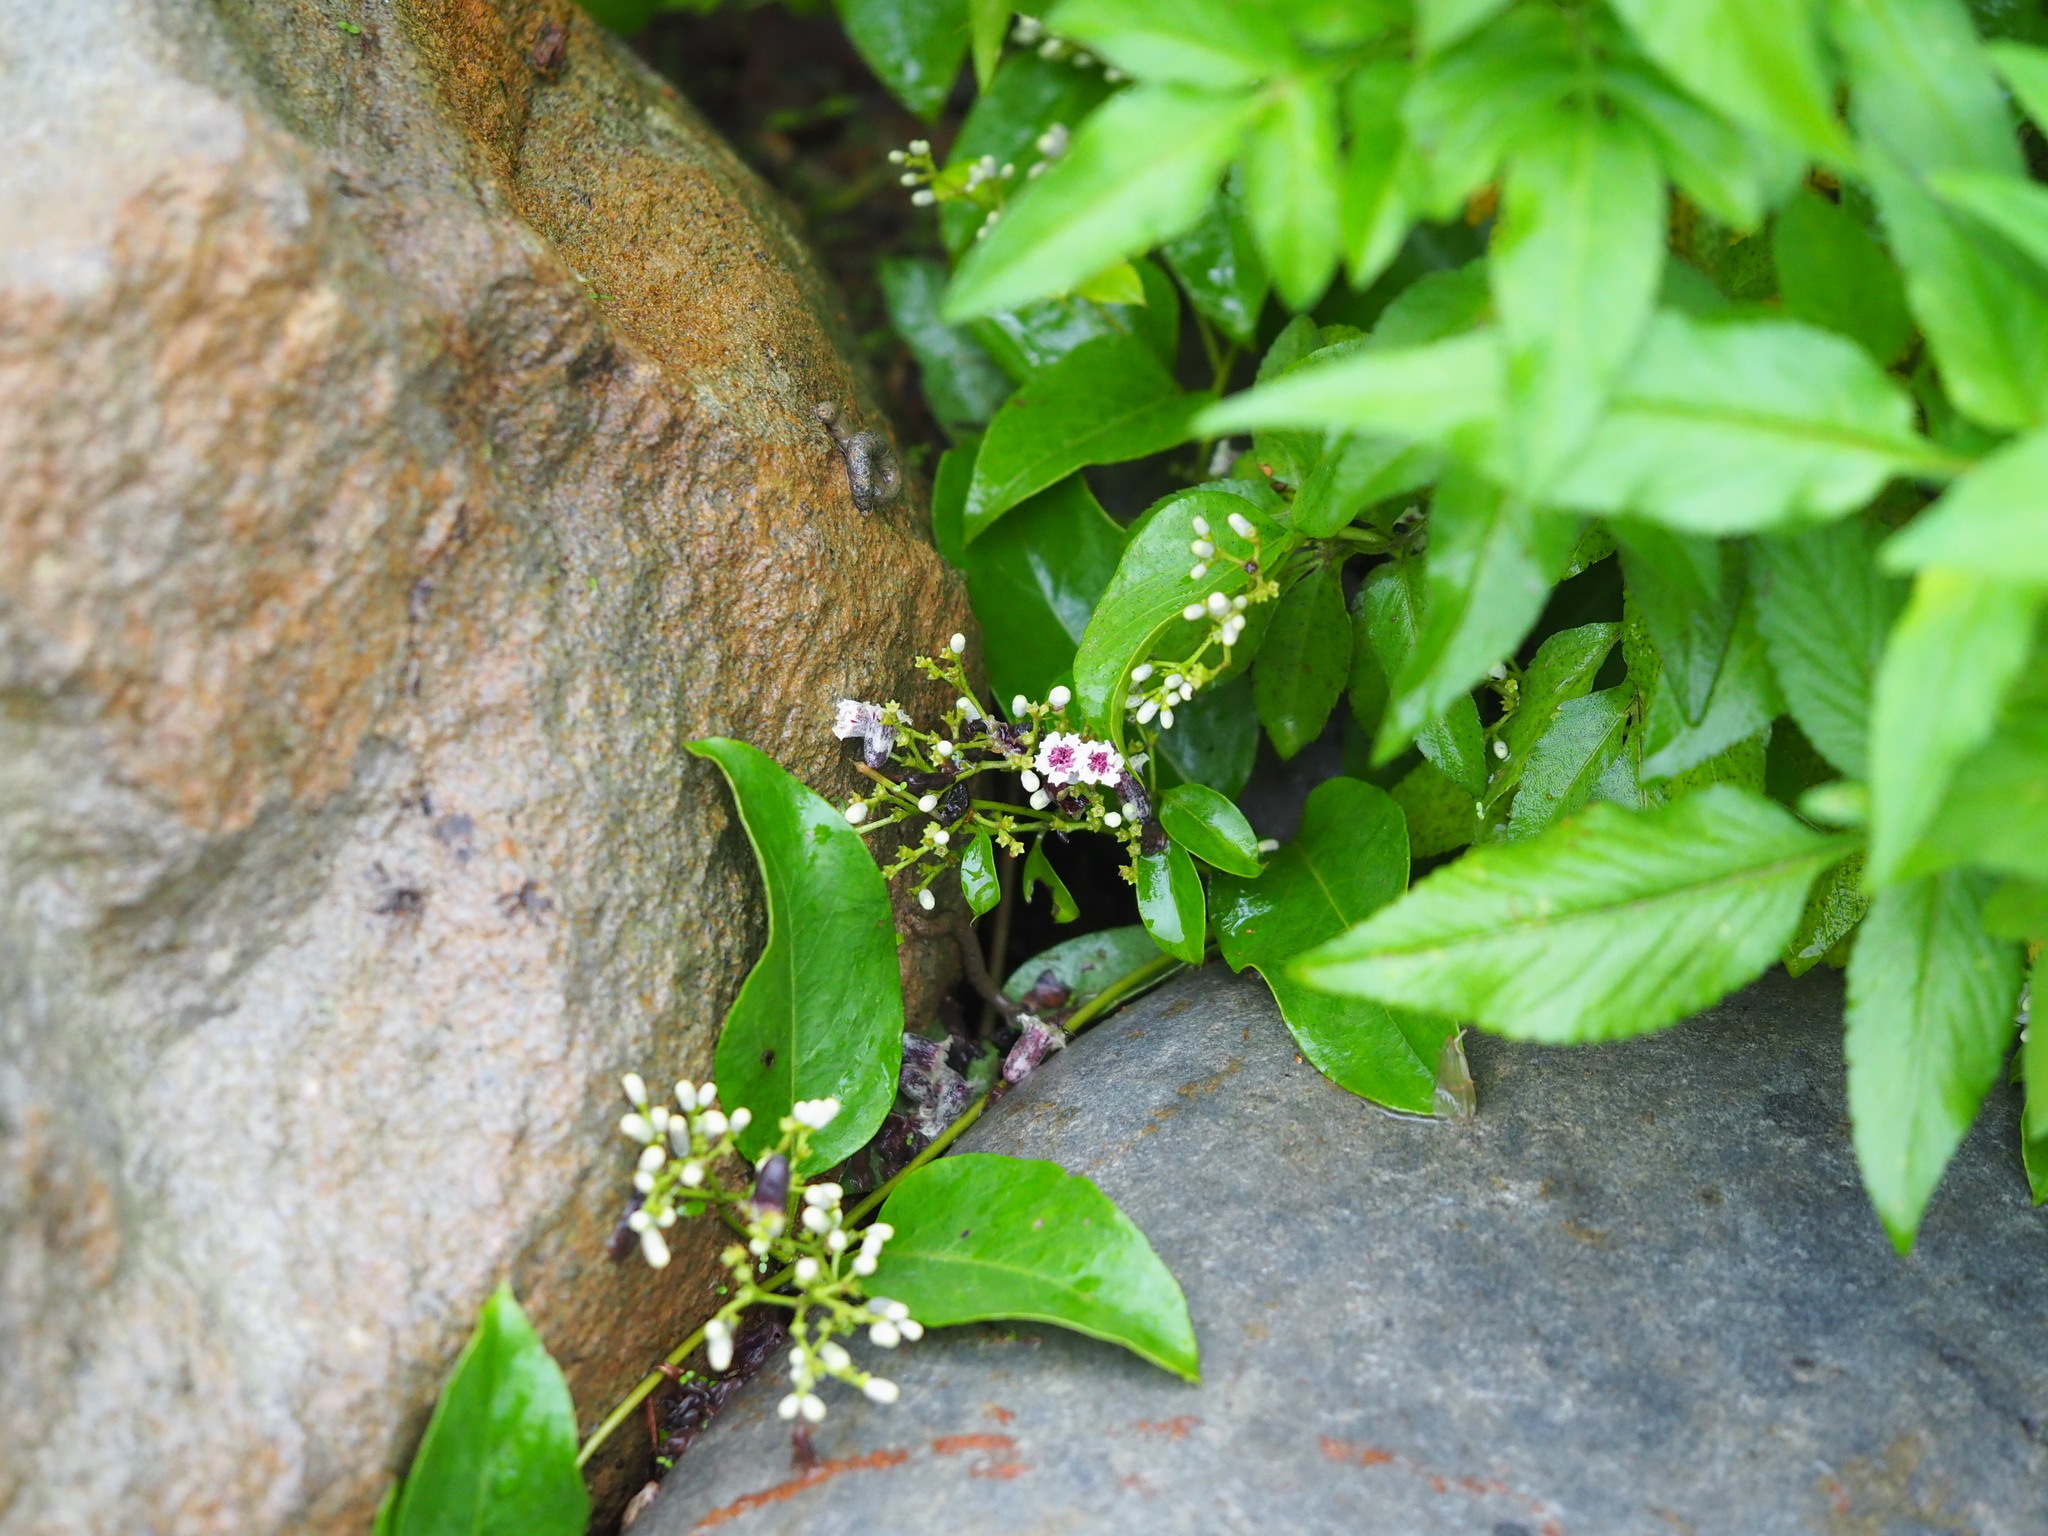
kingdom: Plantae
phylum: Tracheophyta
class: Magnoliopsida
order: Gentianales
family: Rubiaceae
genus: Paederia
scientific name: Paederia foetida
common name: Stinkvine
